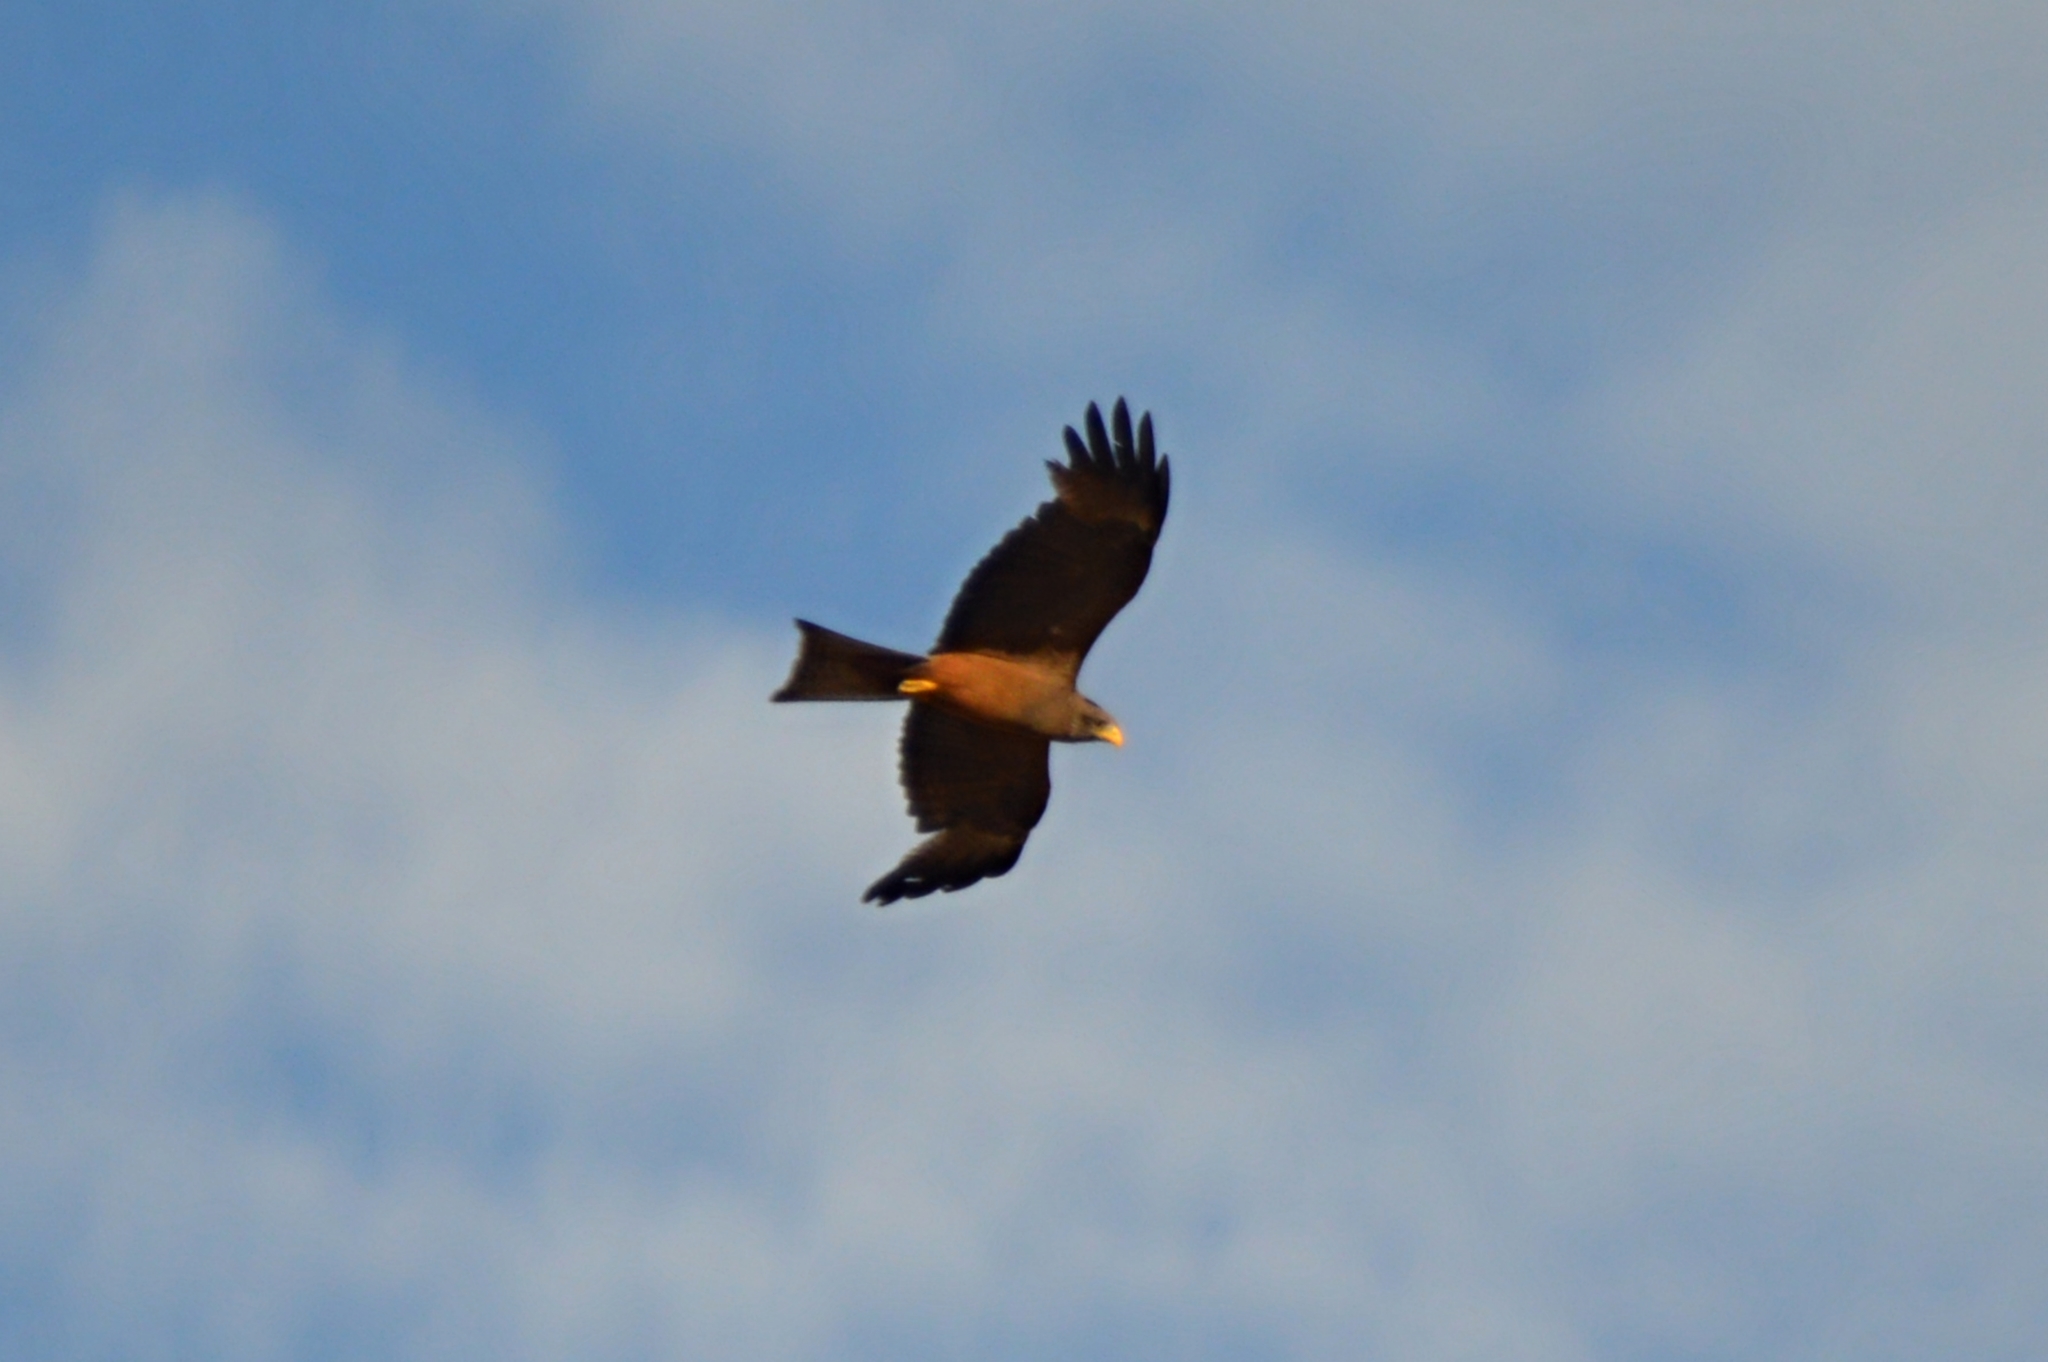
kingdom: Animalia
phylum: Chordata
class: Aves
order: Accipitriformes
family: Accipitridae
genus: Milvus
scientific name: Milvus migrans
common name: Black kite
